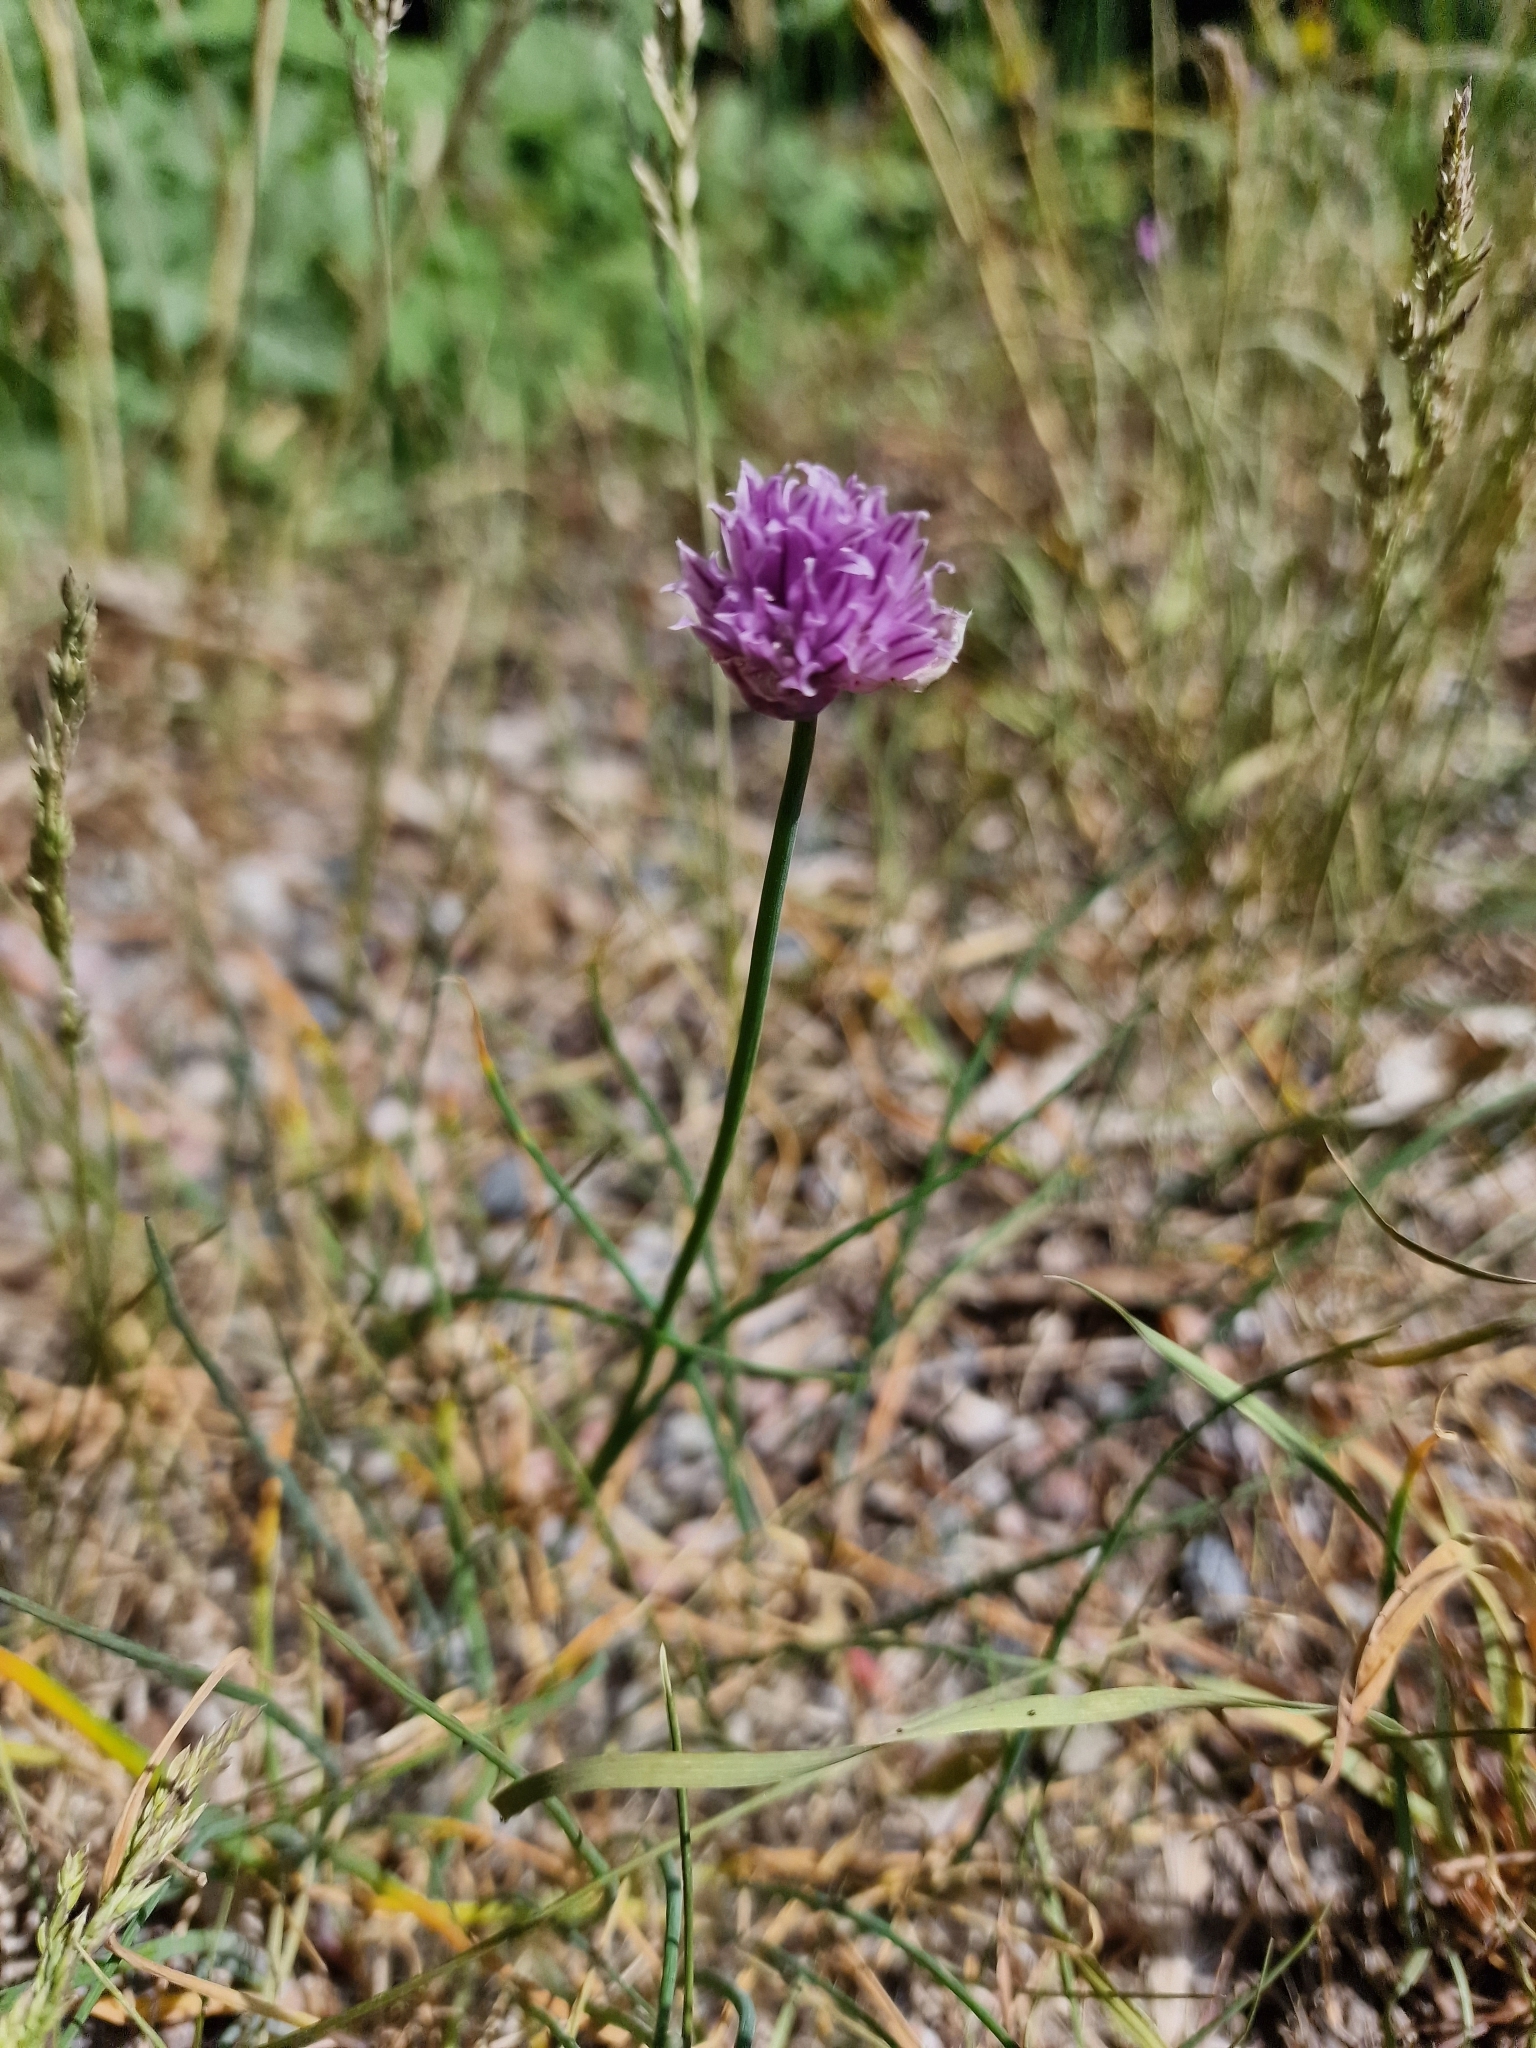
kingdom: Plantae
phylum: Tracheophyta
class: Liliopsida
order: Asparagales
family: Amaryllidaceae
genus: Allium
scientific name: Allium schoenoprasum
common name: Chives
